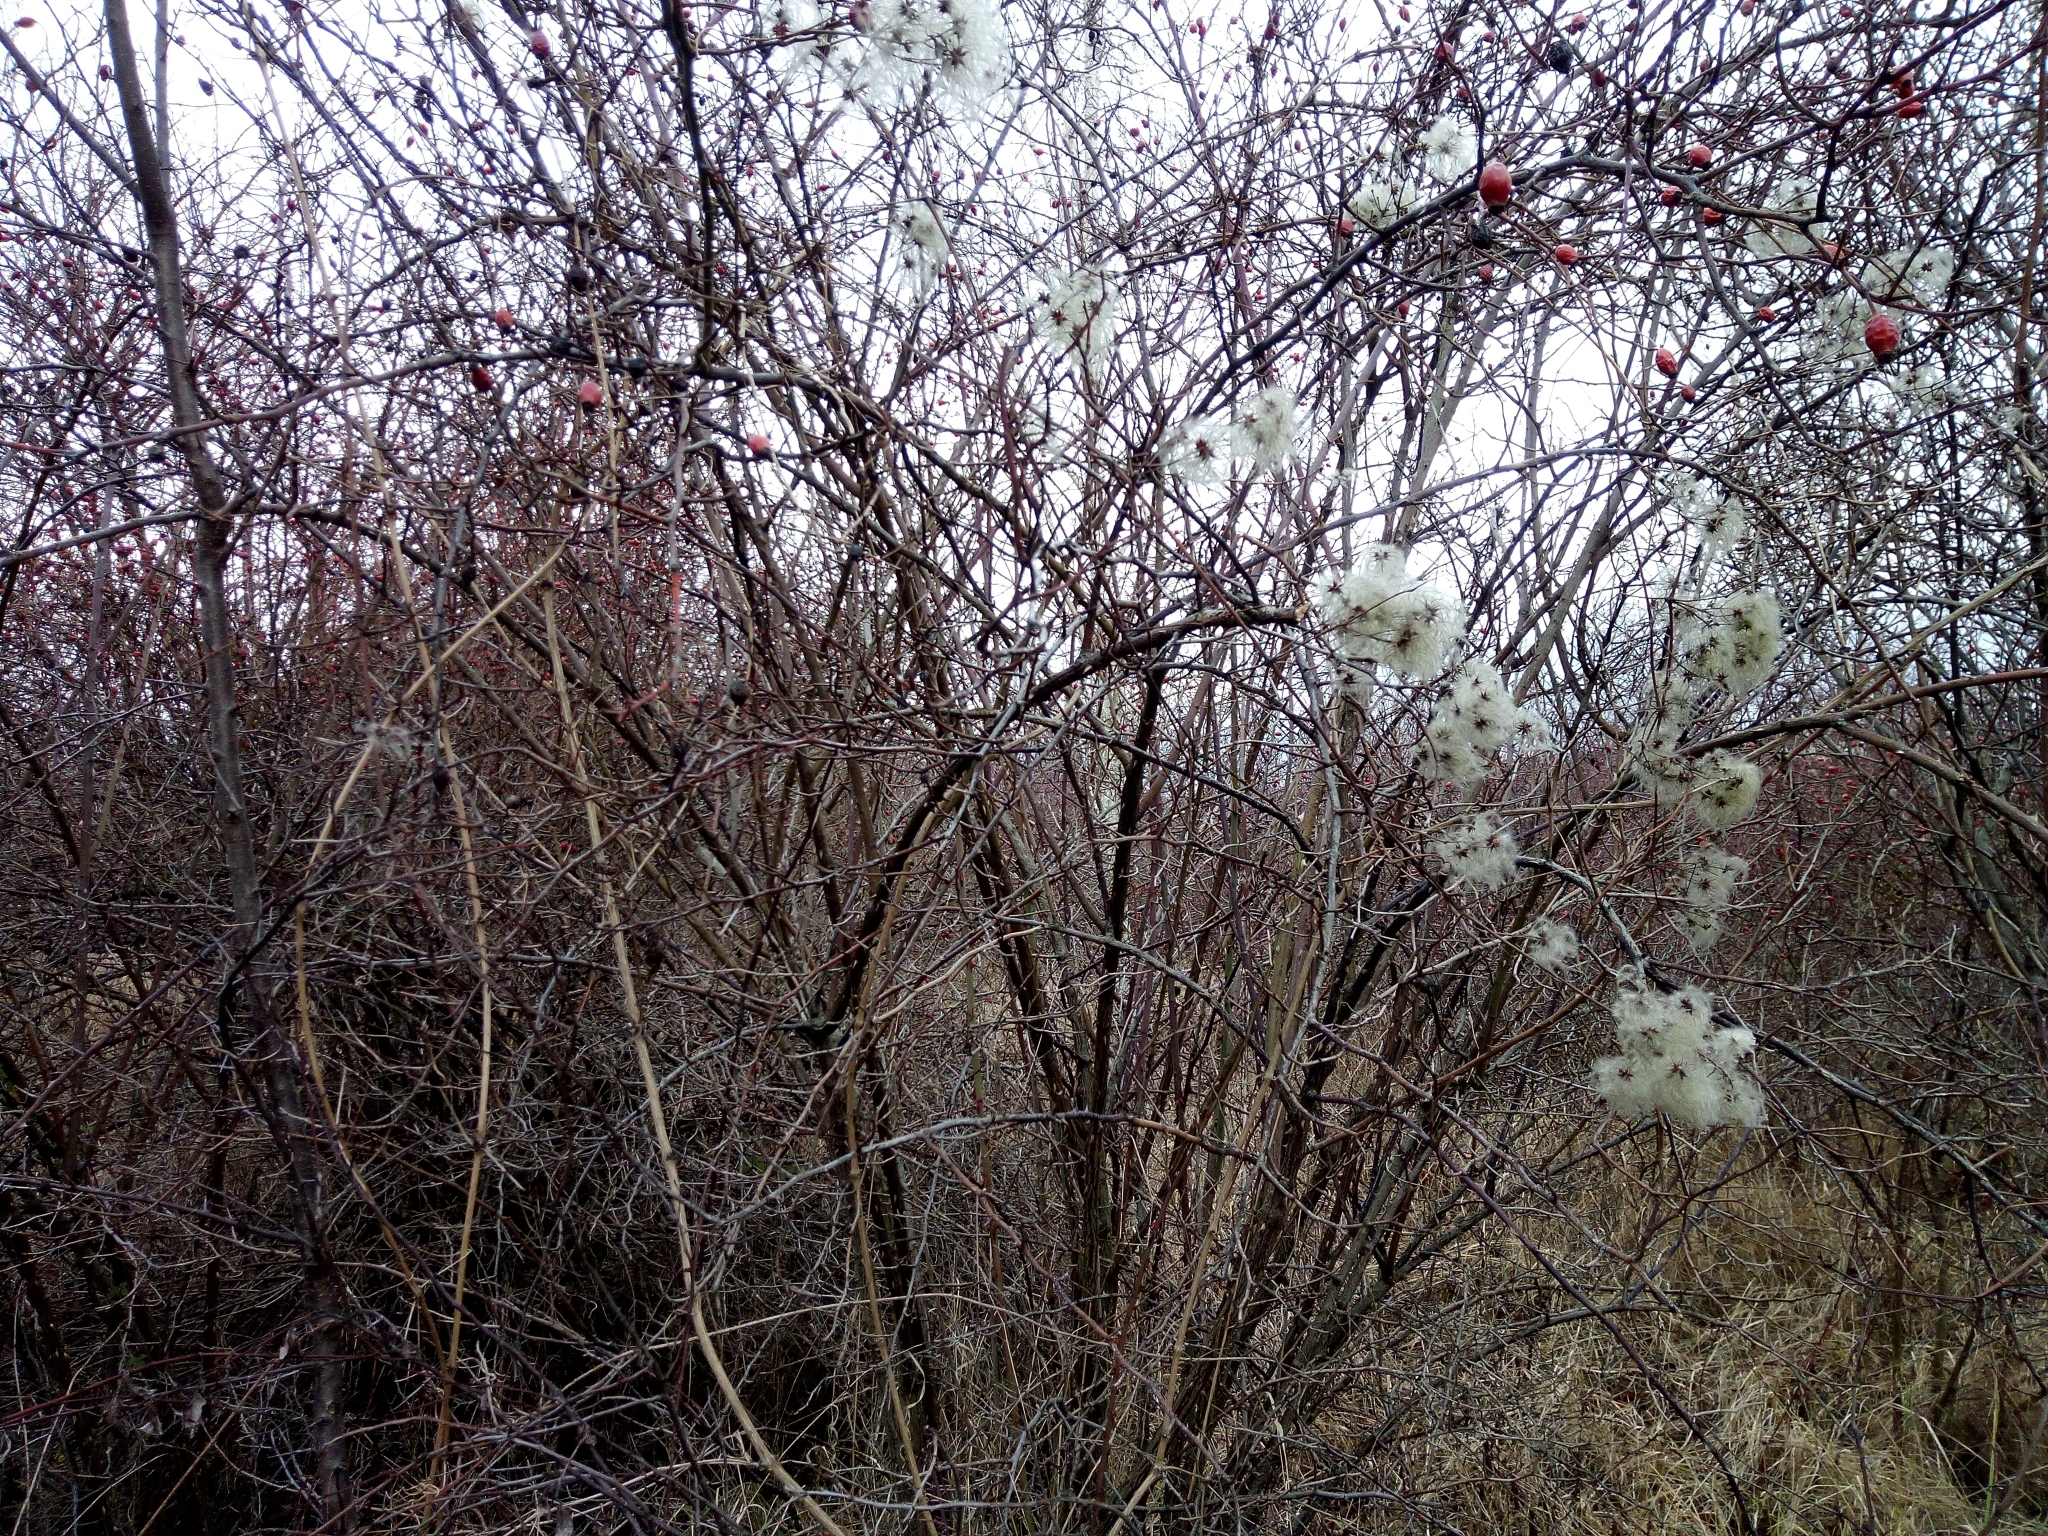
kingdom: Plantae
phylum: Tracheophyta
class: Magnoliopsida
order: Ranunculales
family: Ranunculaceae
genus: Clematis
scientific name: Clematis vitalba
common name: Evergreen clematis
